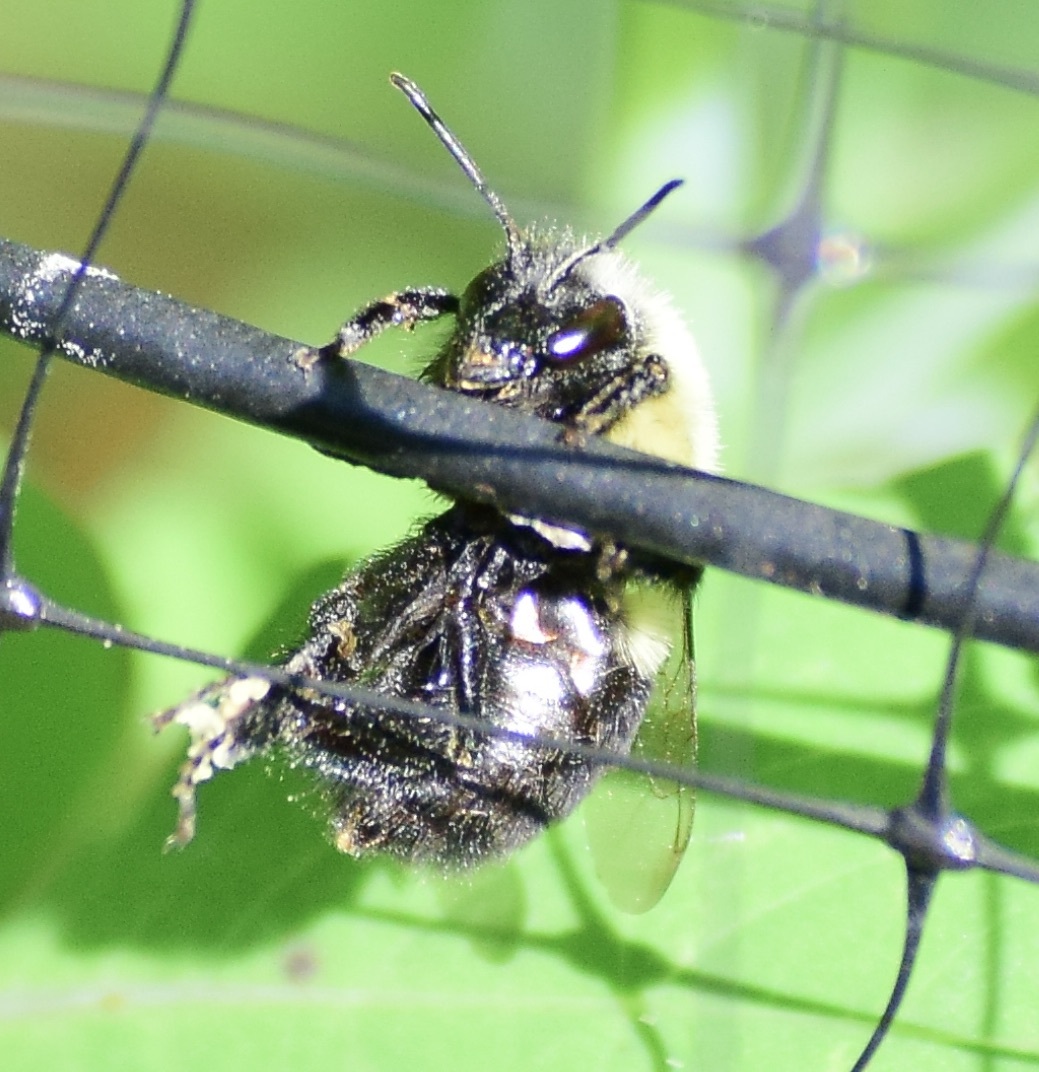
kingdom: Animalia
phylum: Arthropoda
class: Insecta
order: Hymenoptera
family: Apidae
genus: Bombus
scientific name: Bombus impatiens
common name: Common eastern bumble bee
